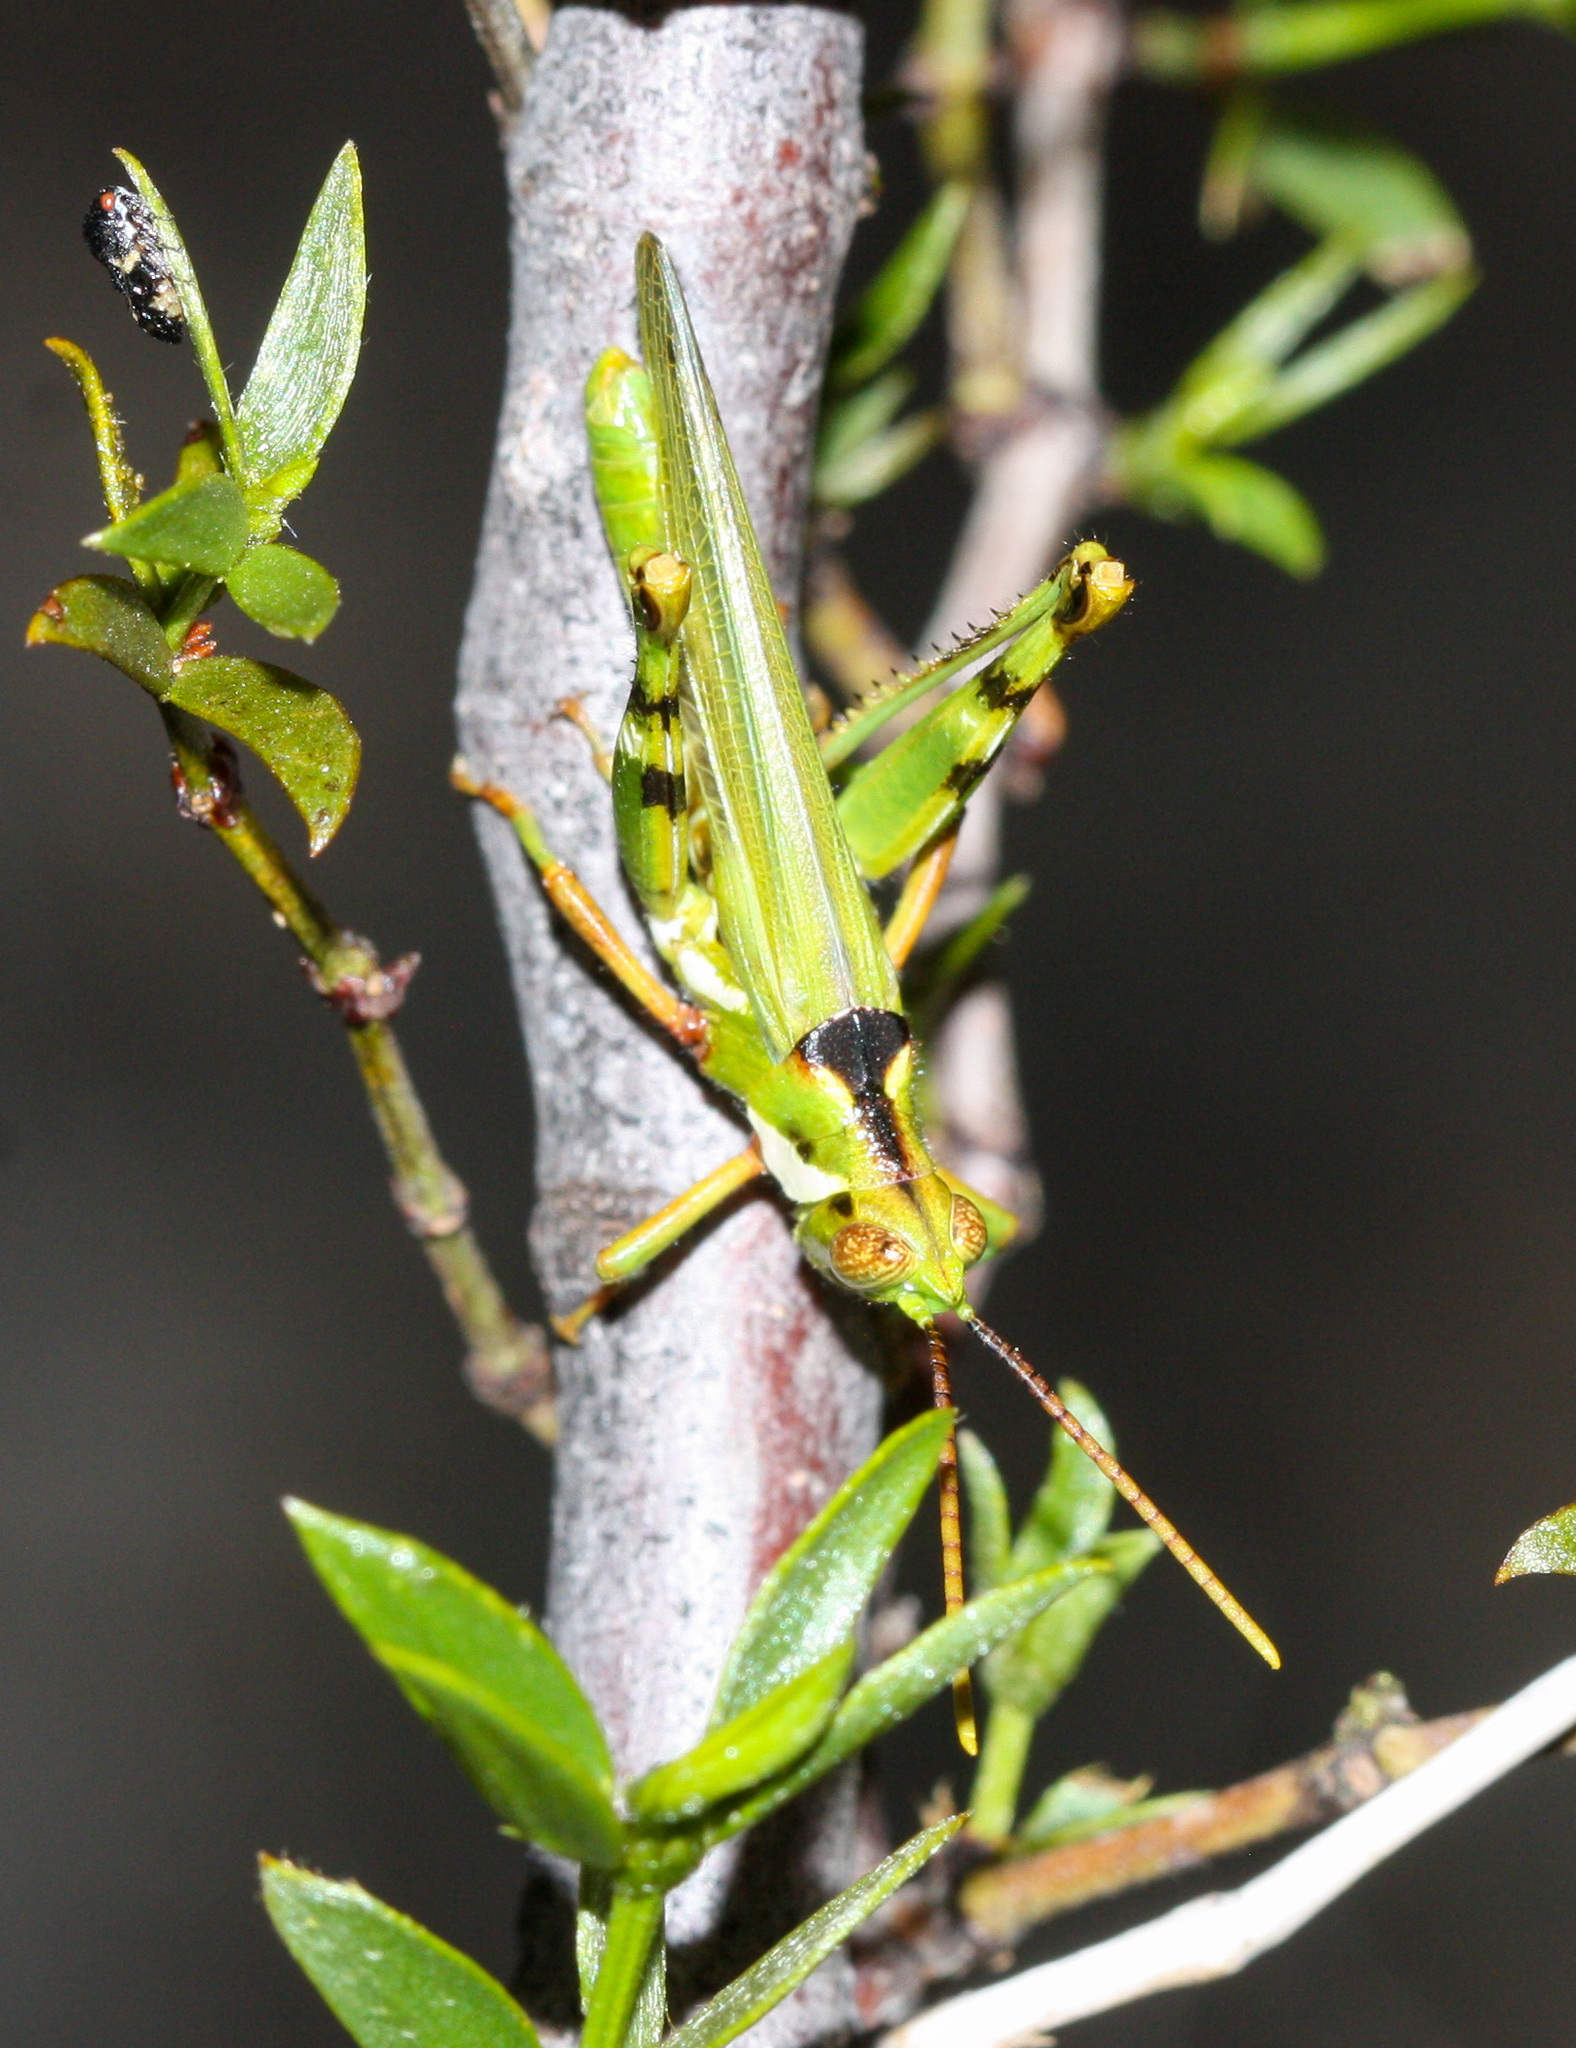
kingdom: Animalia
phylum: Arthropoda
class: Insecta
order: Orthoptera
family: Acrididae
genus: Bootettix
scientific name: Bootettix argentatus
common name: Creosote bush grasshopper
